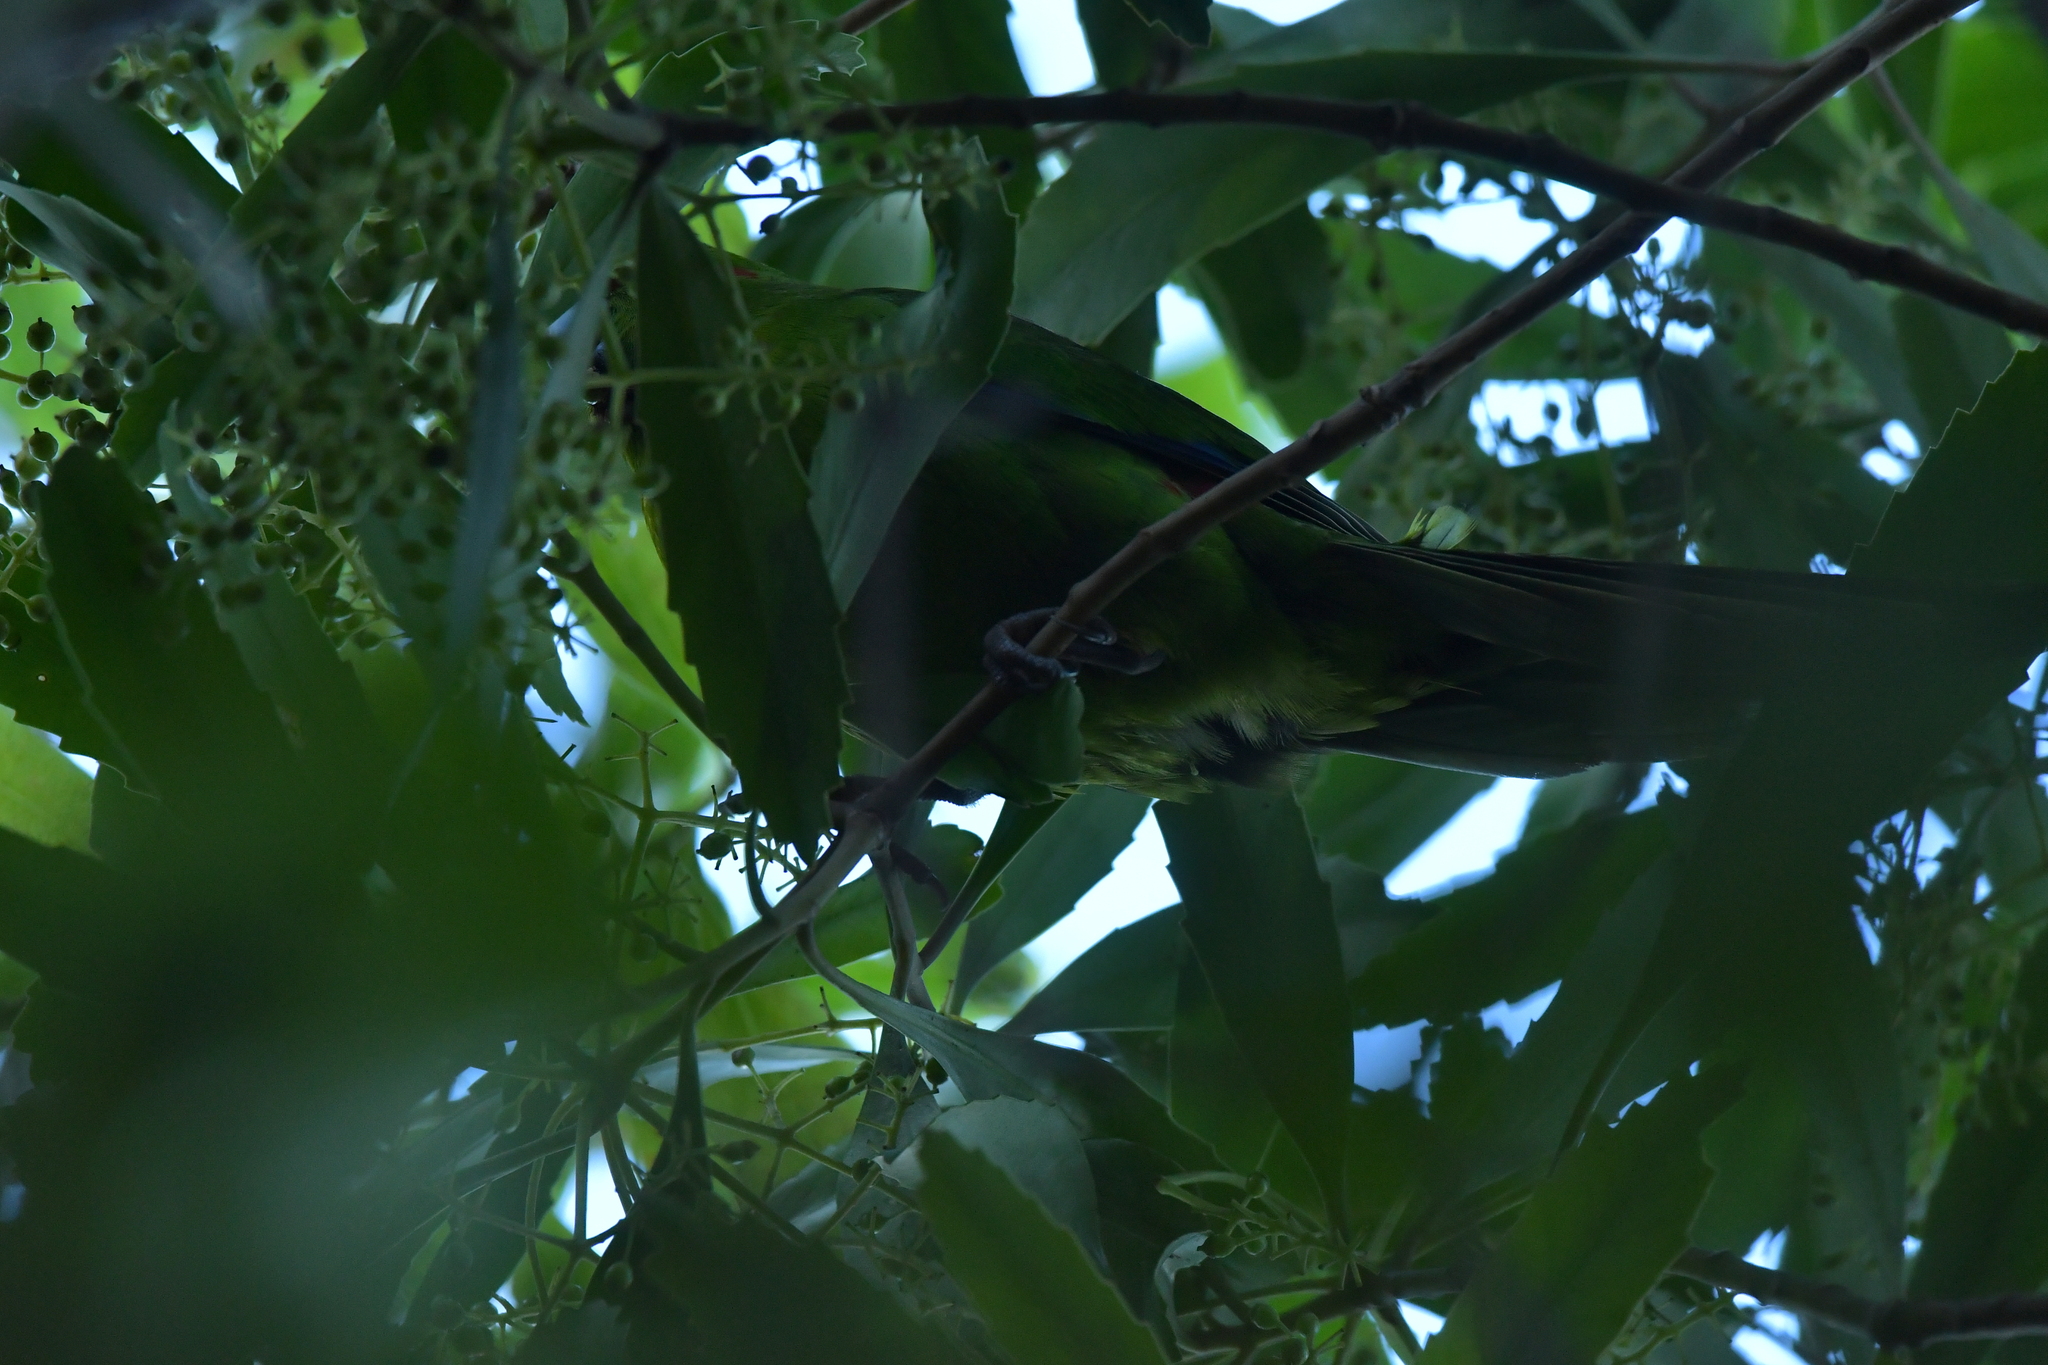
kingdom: Animalia
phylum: Chordata
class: Aves
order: Psittaciformes
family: Psittacidae
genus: Cyanoramphus
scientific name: Cyanoramphus novaezelandiae
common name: Red-fronted parakeet
